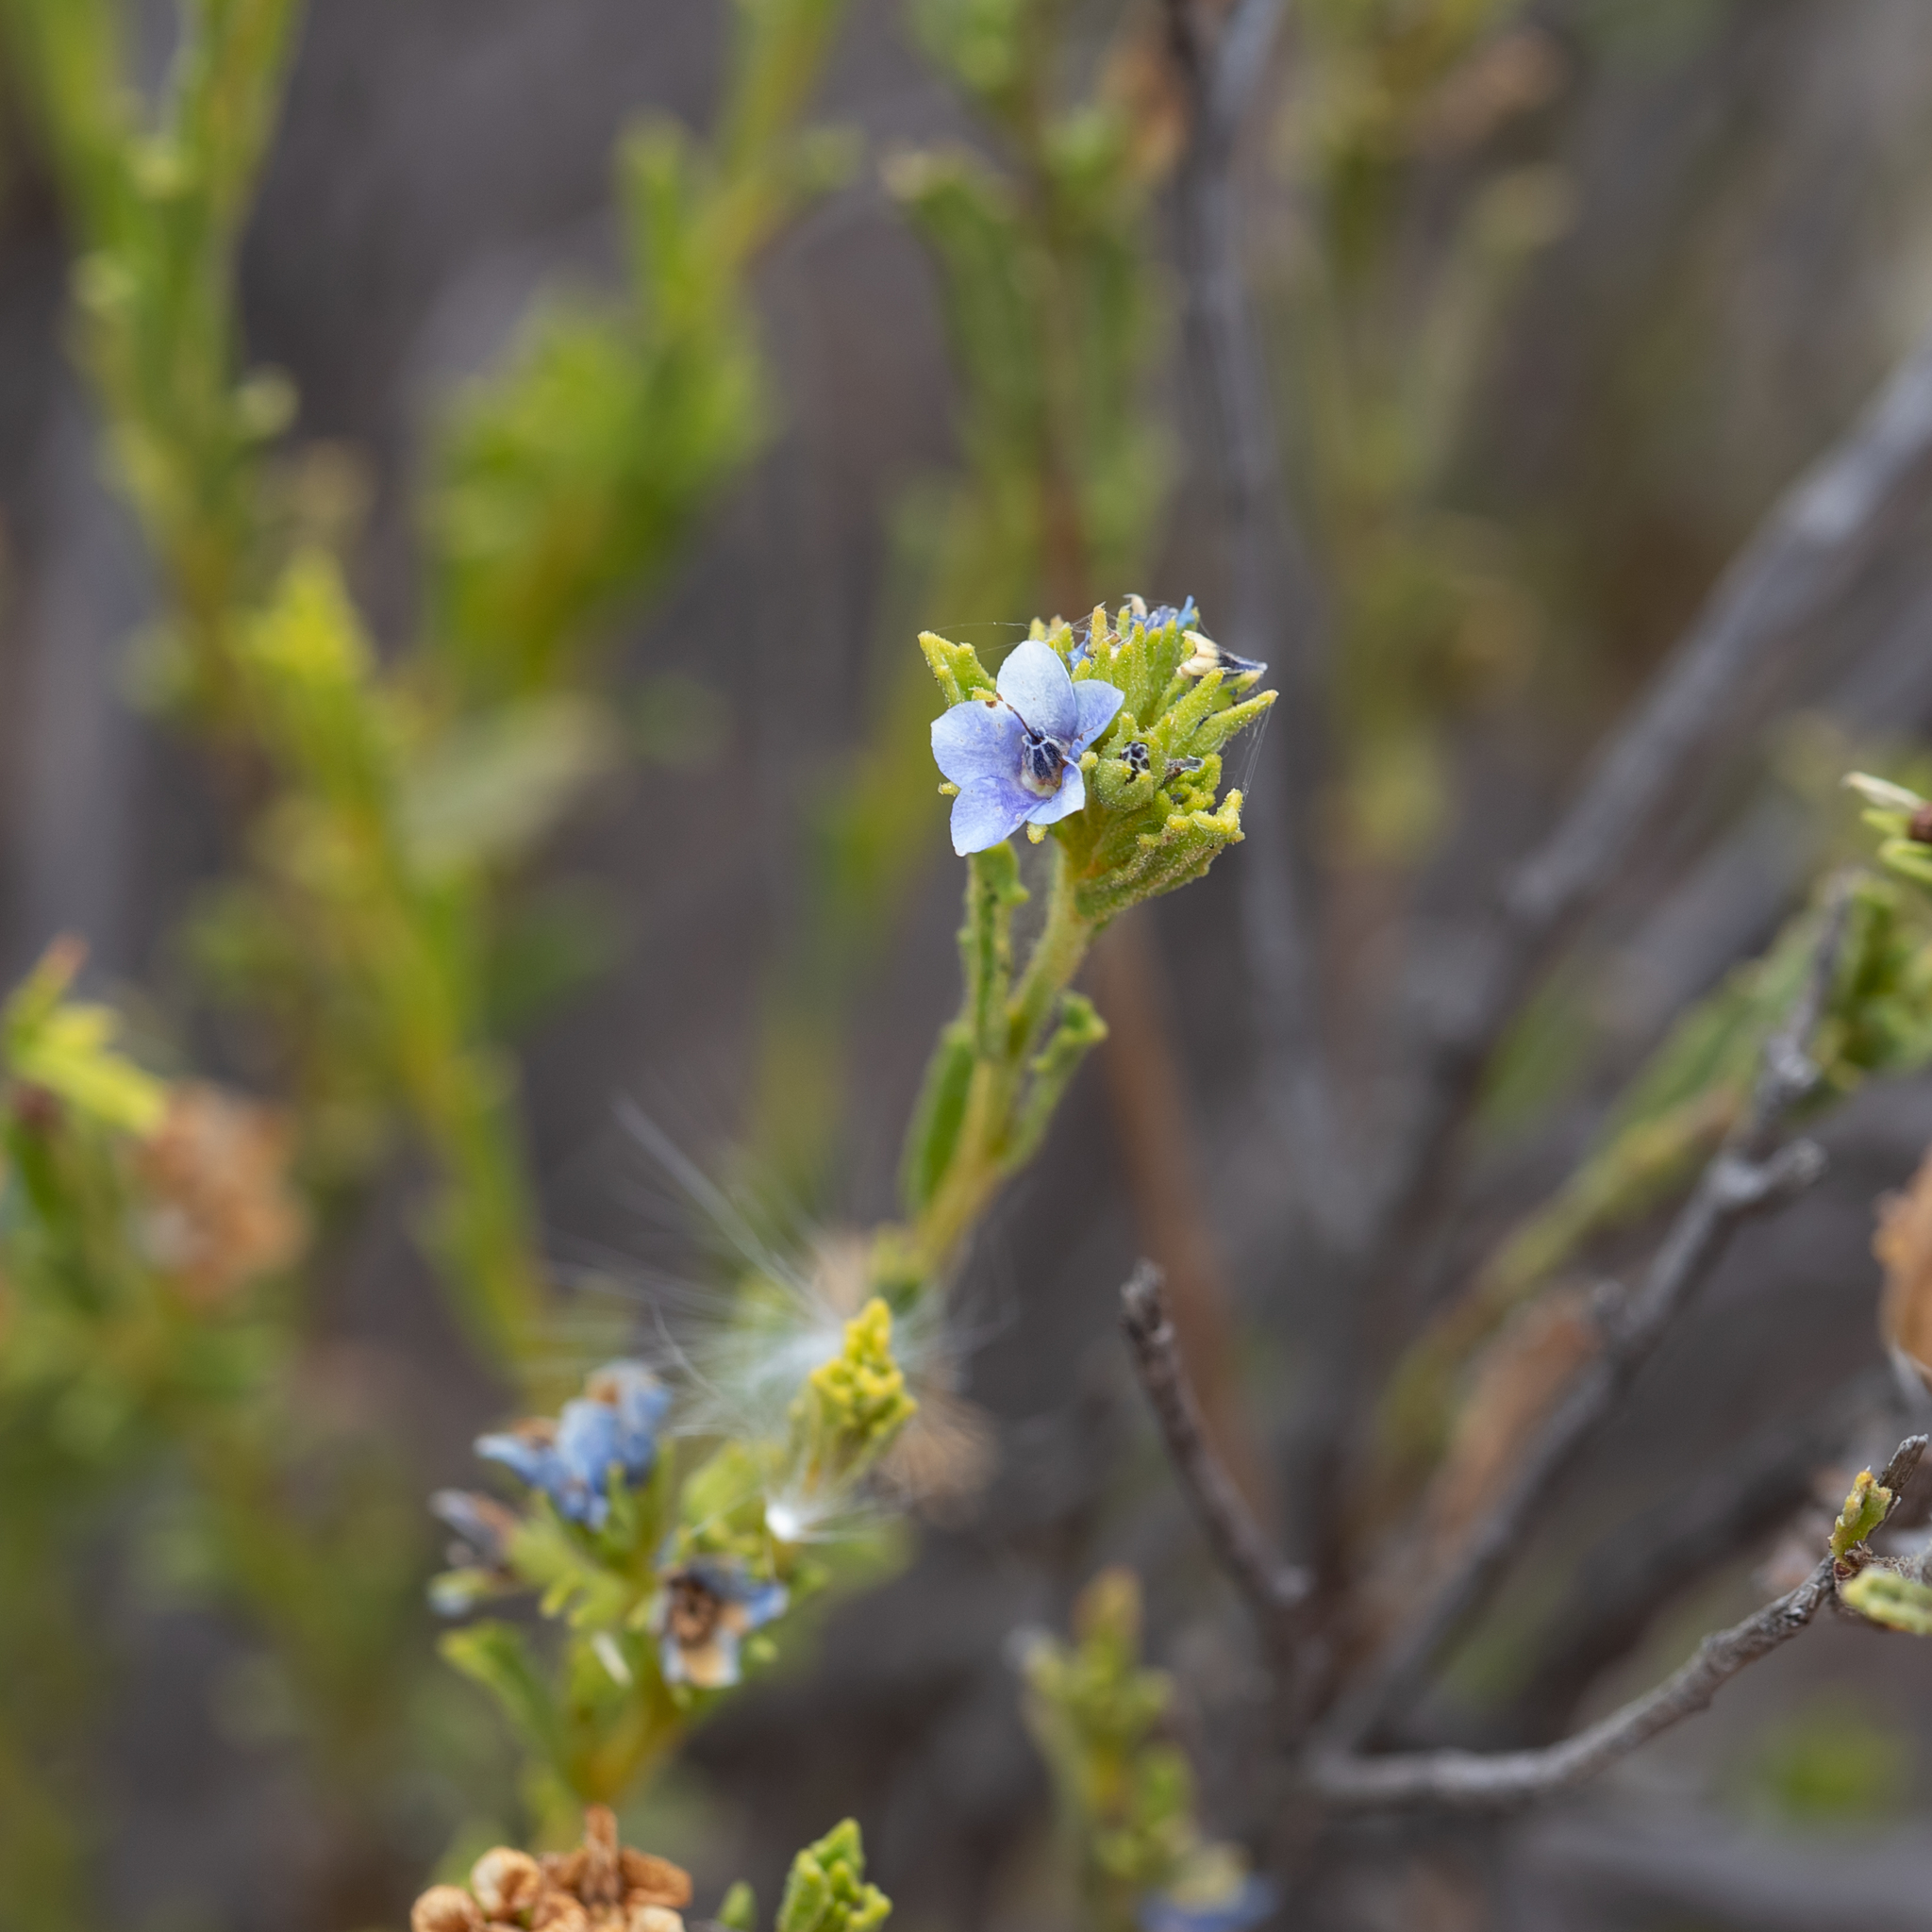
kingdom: Plantae
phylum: Tracheophyta
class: Magnoliopsida
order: Boraginales
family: Ehretiaceae
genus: Halgania
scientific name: Halgania cyanea
